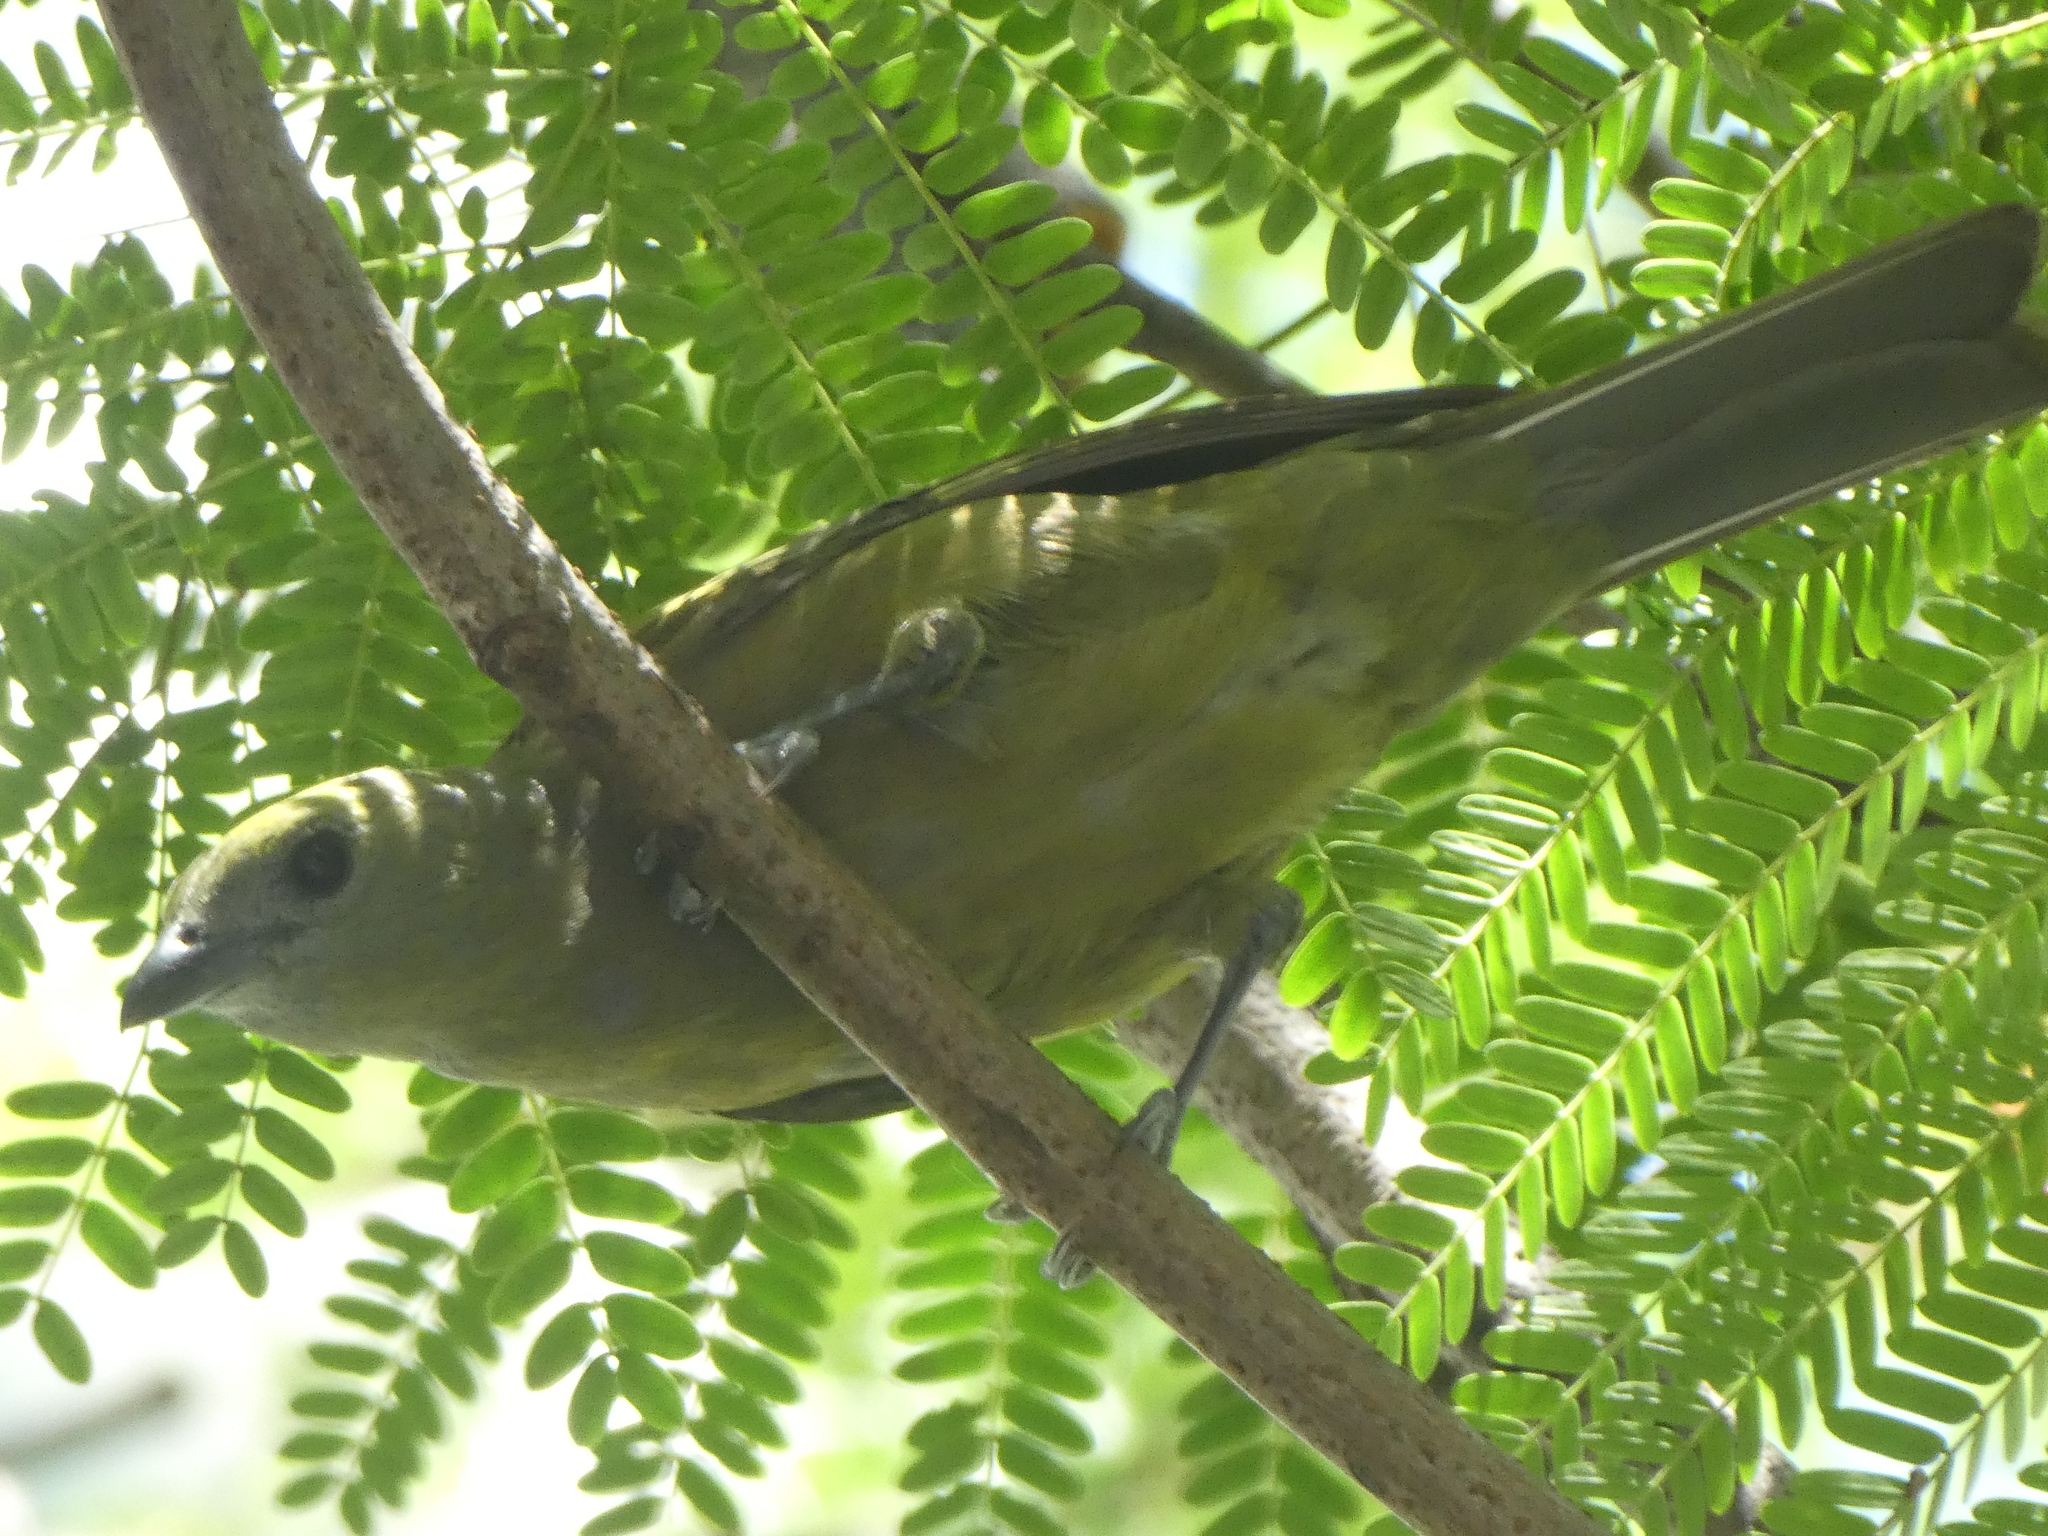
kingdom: Animalia
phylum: Chordata
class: Aves
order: Passeriformes
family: Thraupidae
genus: Thraupis
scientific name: Thraupis palmarum
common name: Palm tanager
